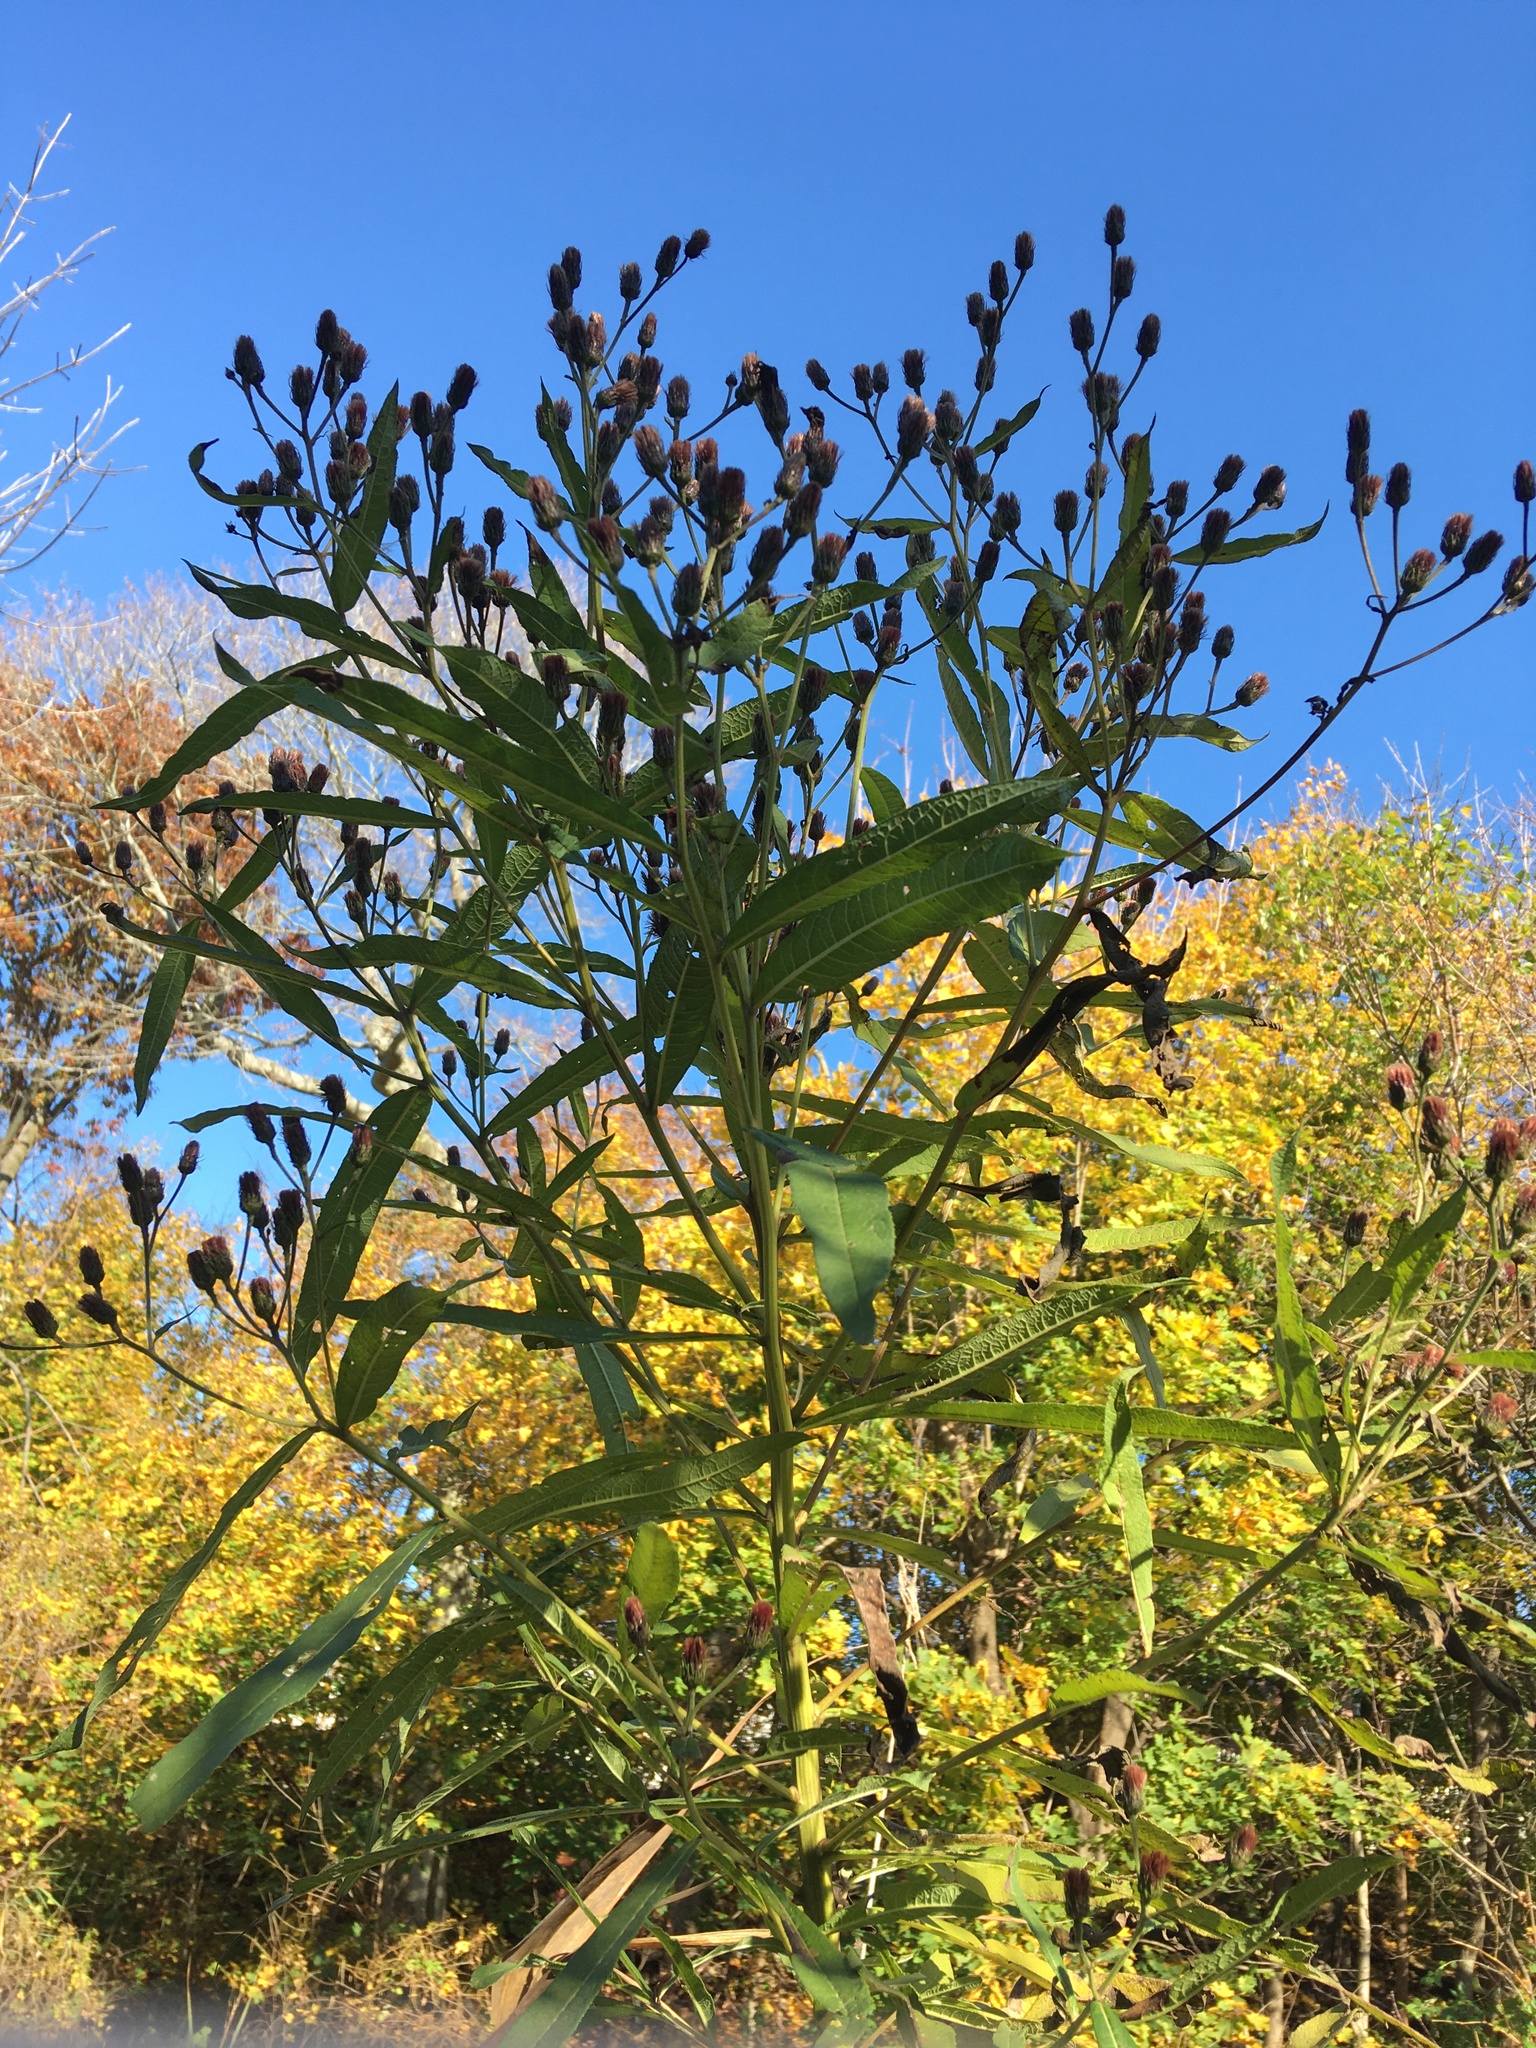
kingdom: Plantae
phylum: Tracheophyta
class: Magnoliopsida
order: Asterales
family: Asteraceae
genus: Vernonia
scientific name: Vernonia noveboracensis
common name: New york ironweed
